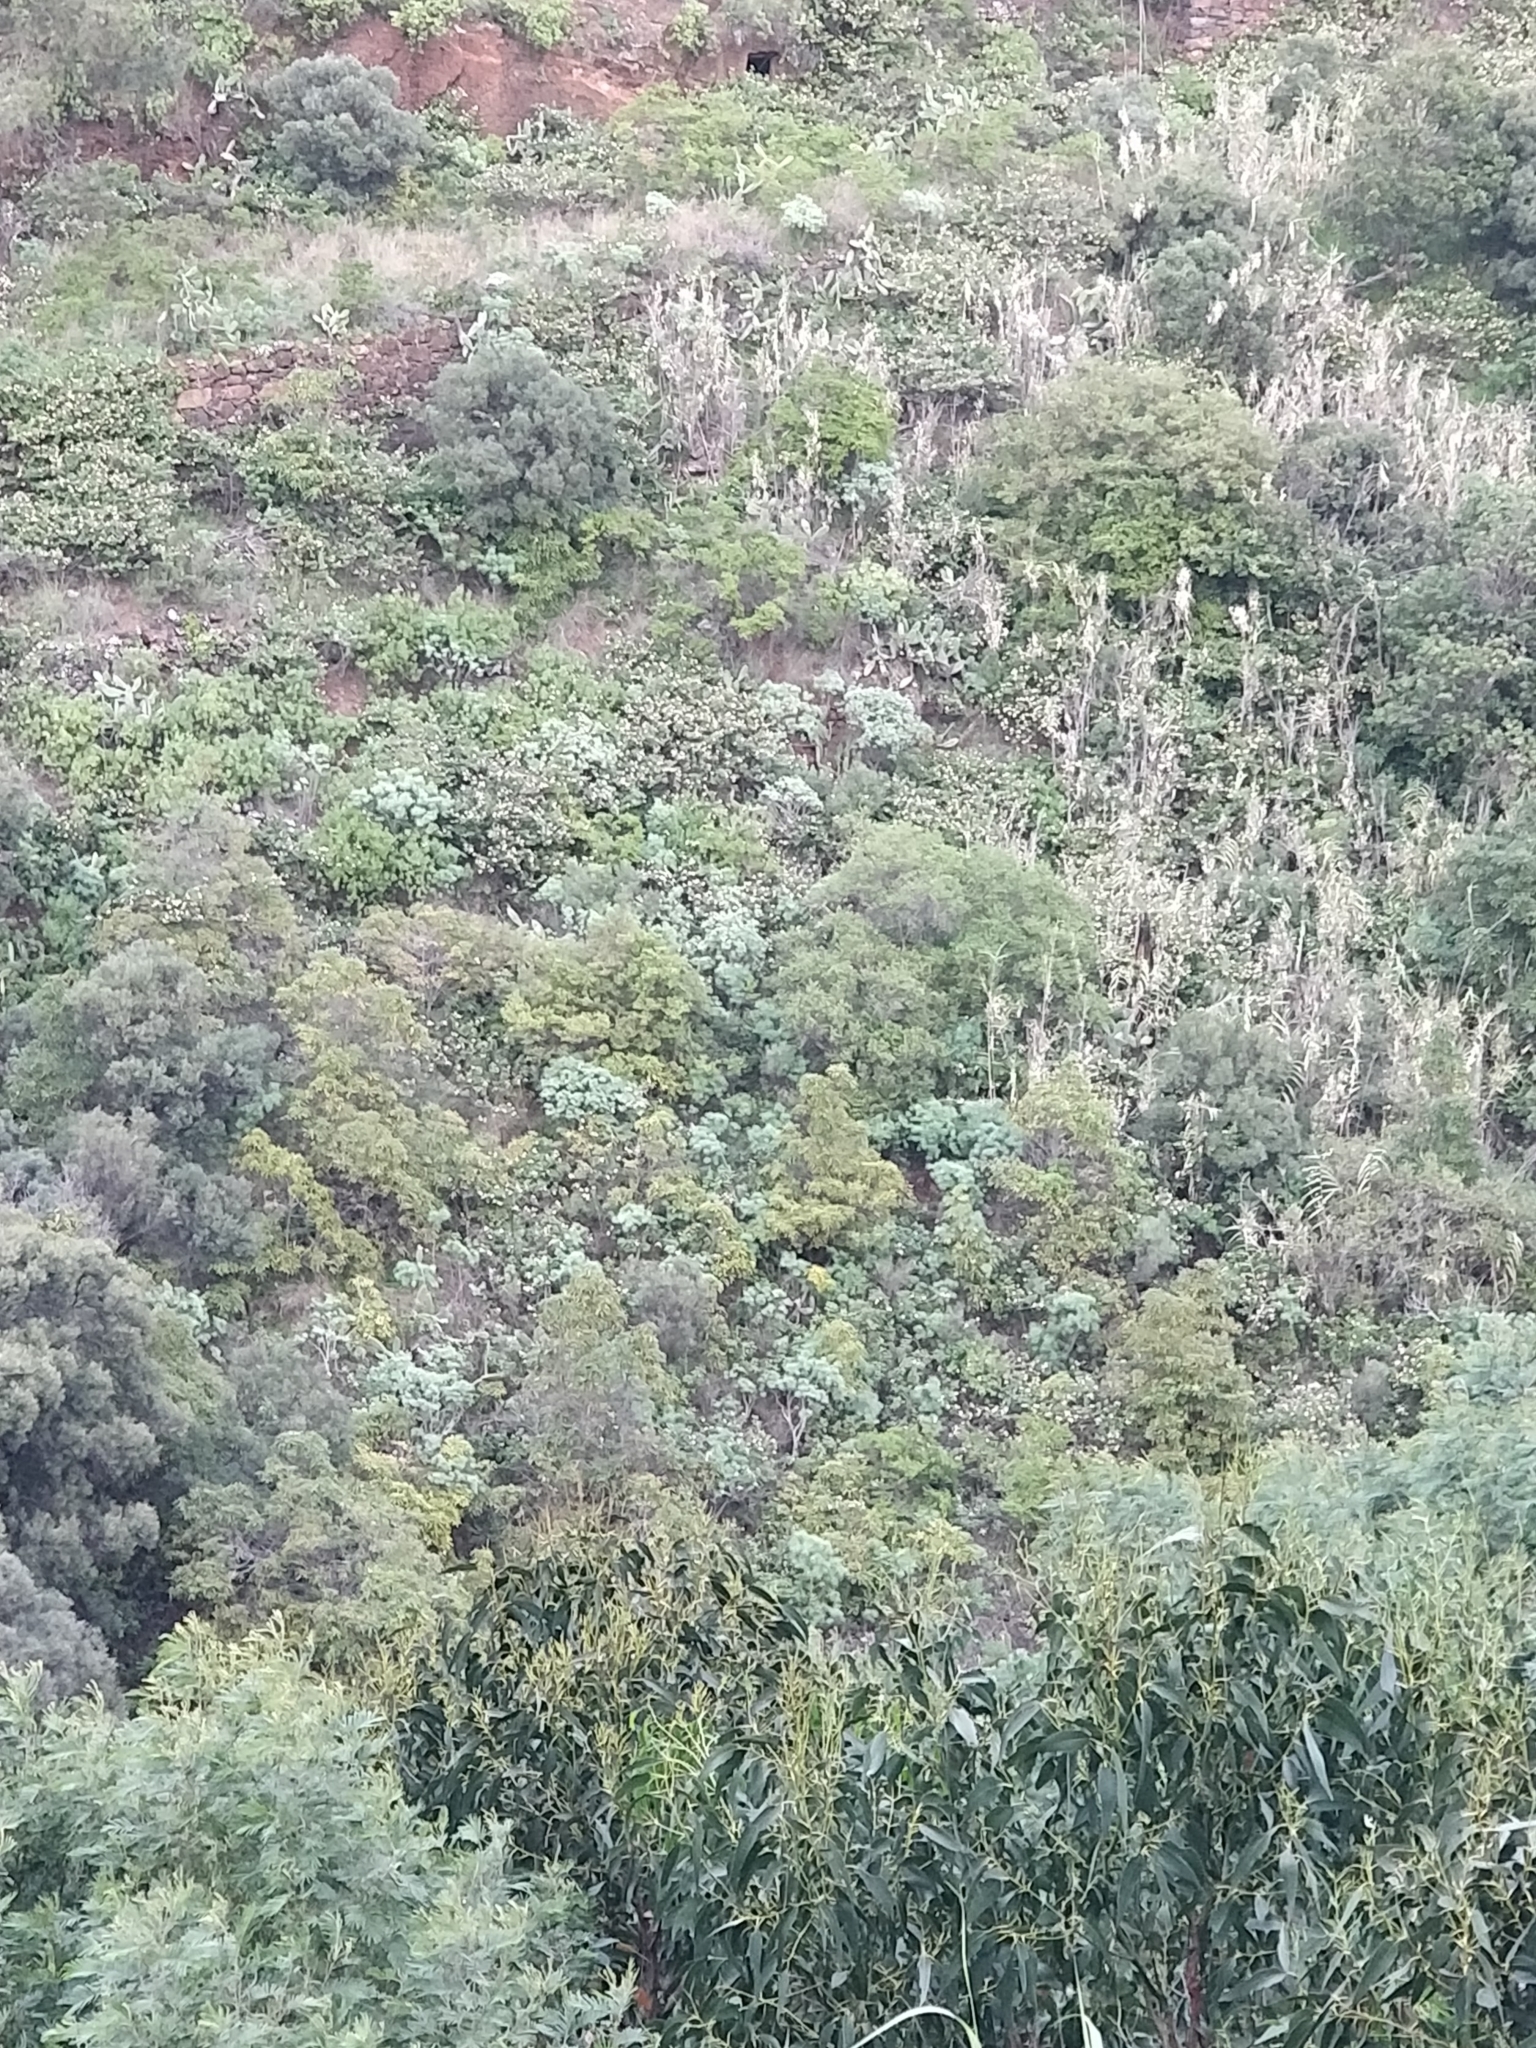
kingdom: Plantae
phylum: Tracheophyta
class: Magnoliopsida
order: Malpighiales
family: Euphorbiaceae
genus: Euphorbia
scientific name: Euphorbia piscatoria
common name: Fish-stunning spurge
